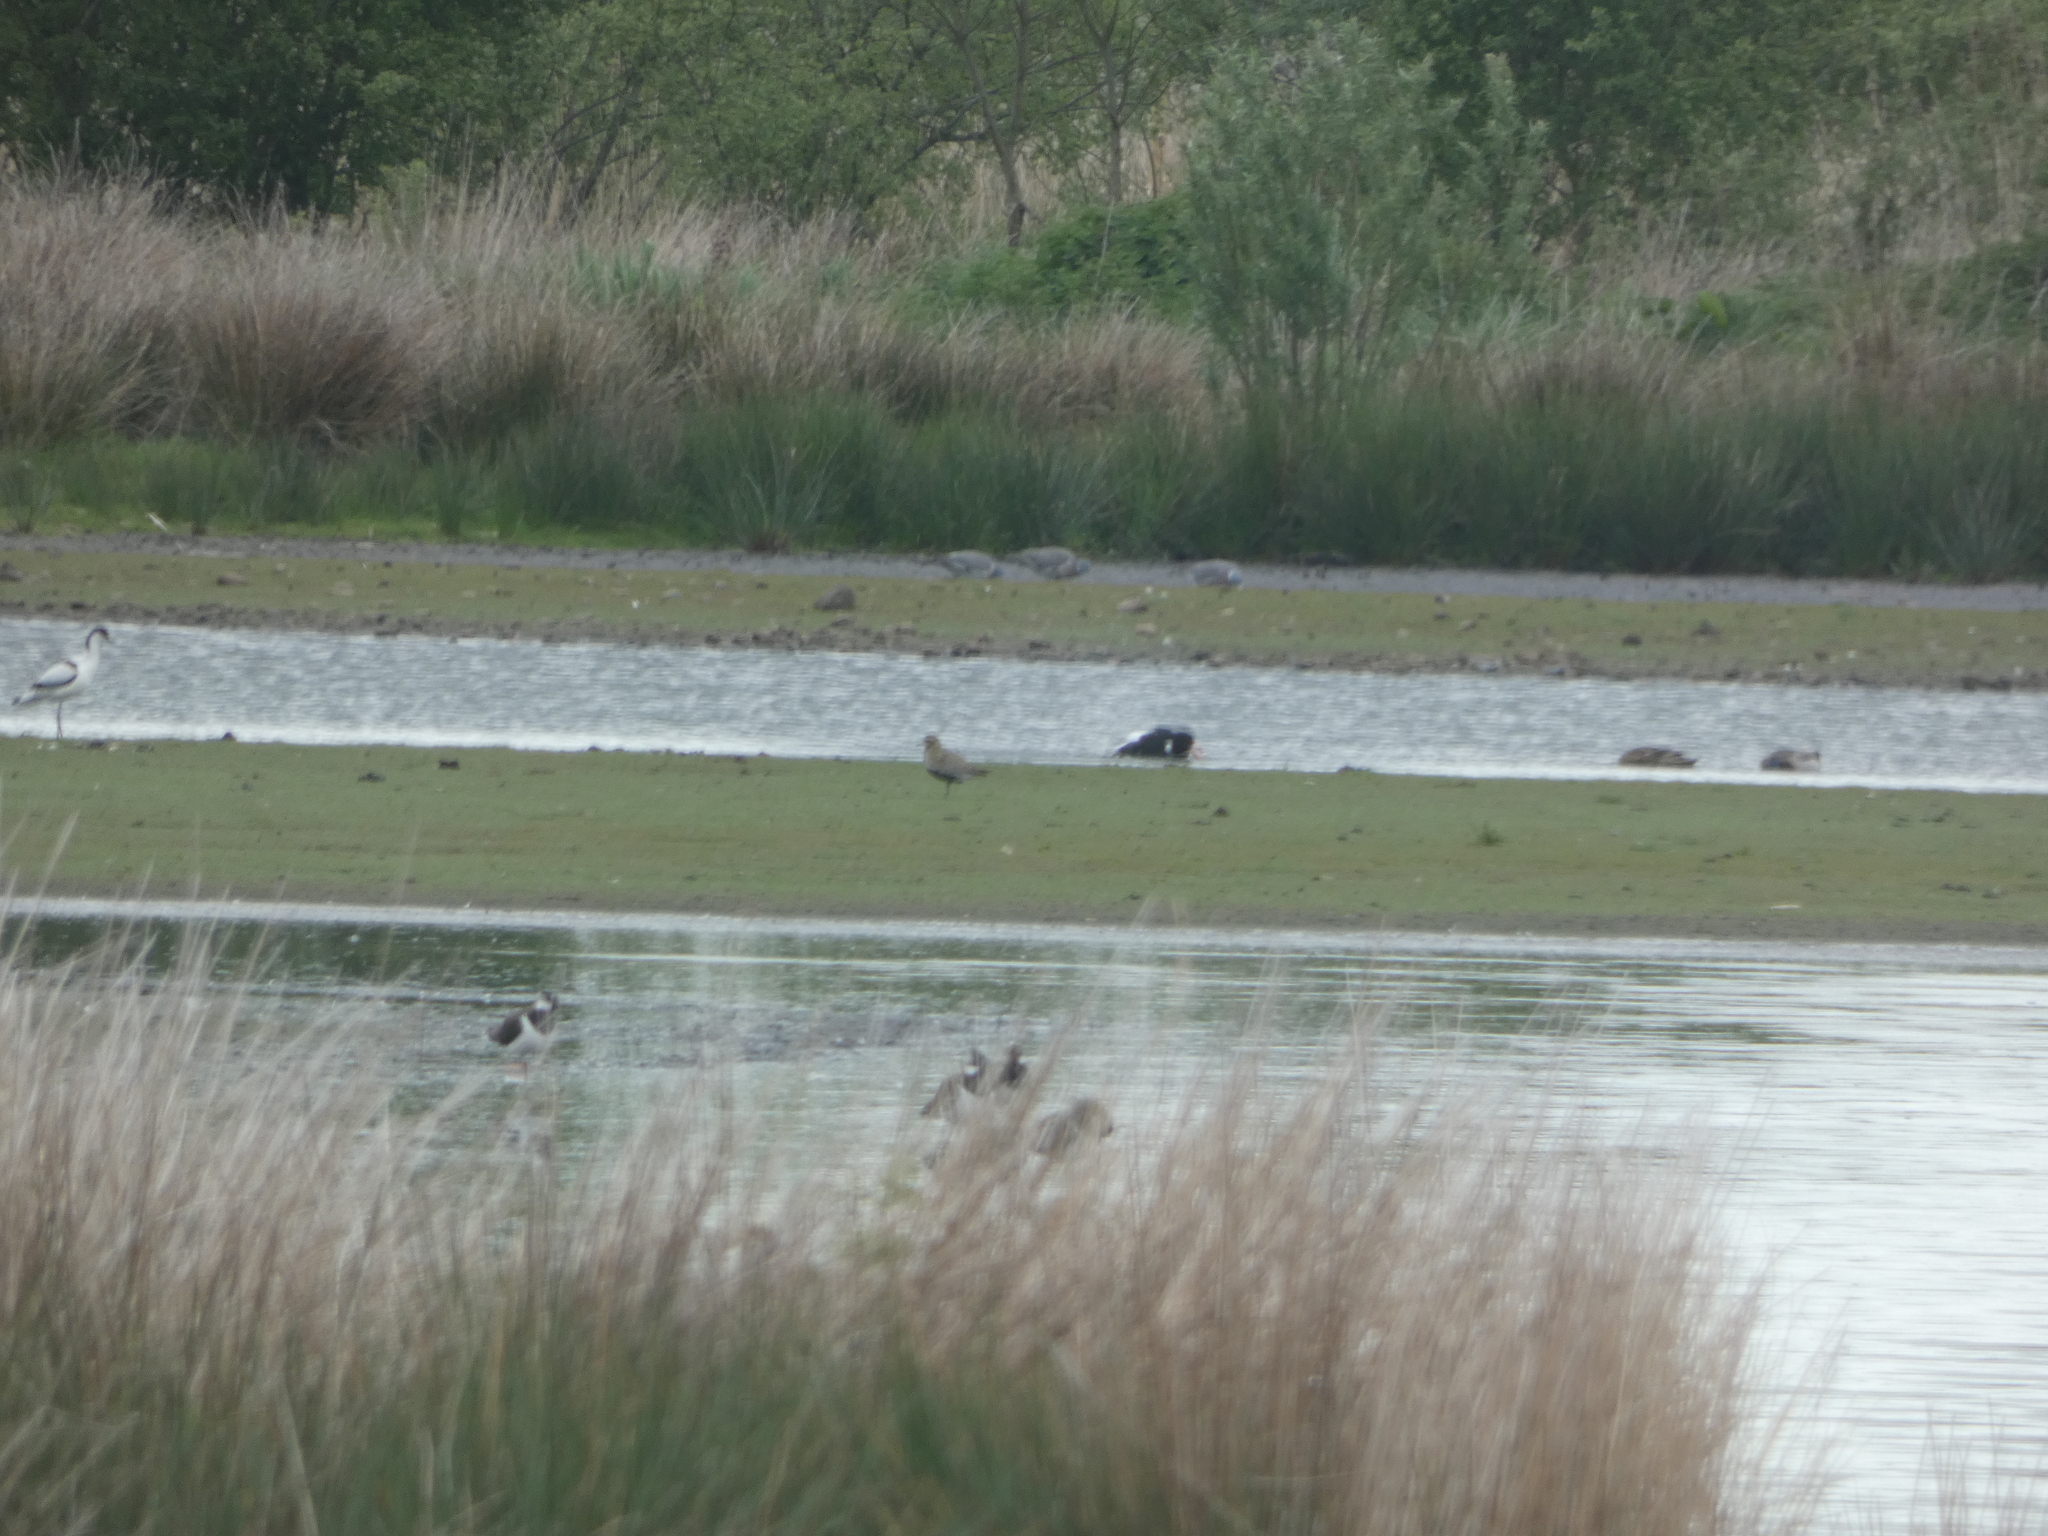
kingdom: Animalia
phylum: Chordata
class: Aves
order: Charadriiformes
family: Charadriidae
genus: Pluvialis
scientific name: Pluvialis apricaria
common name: European golden plover
